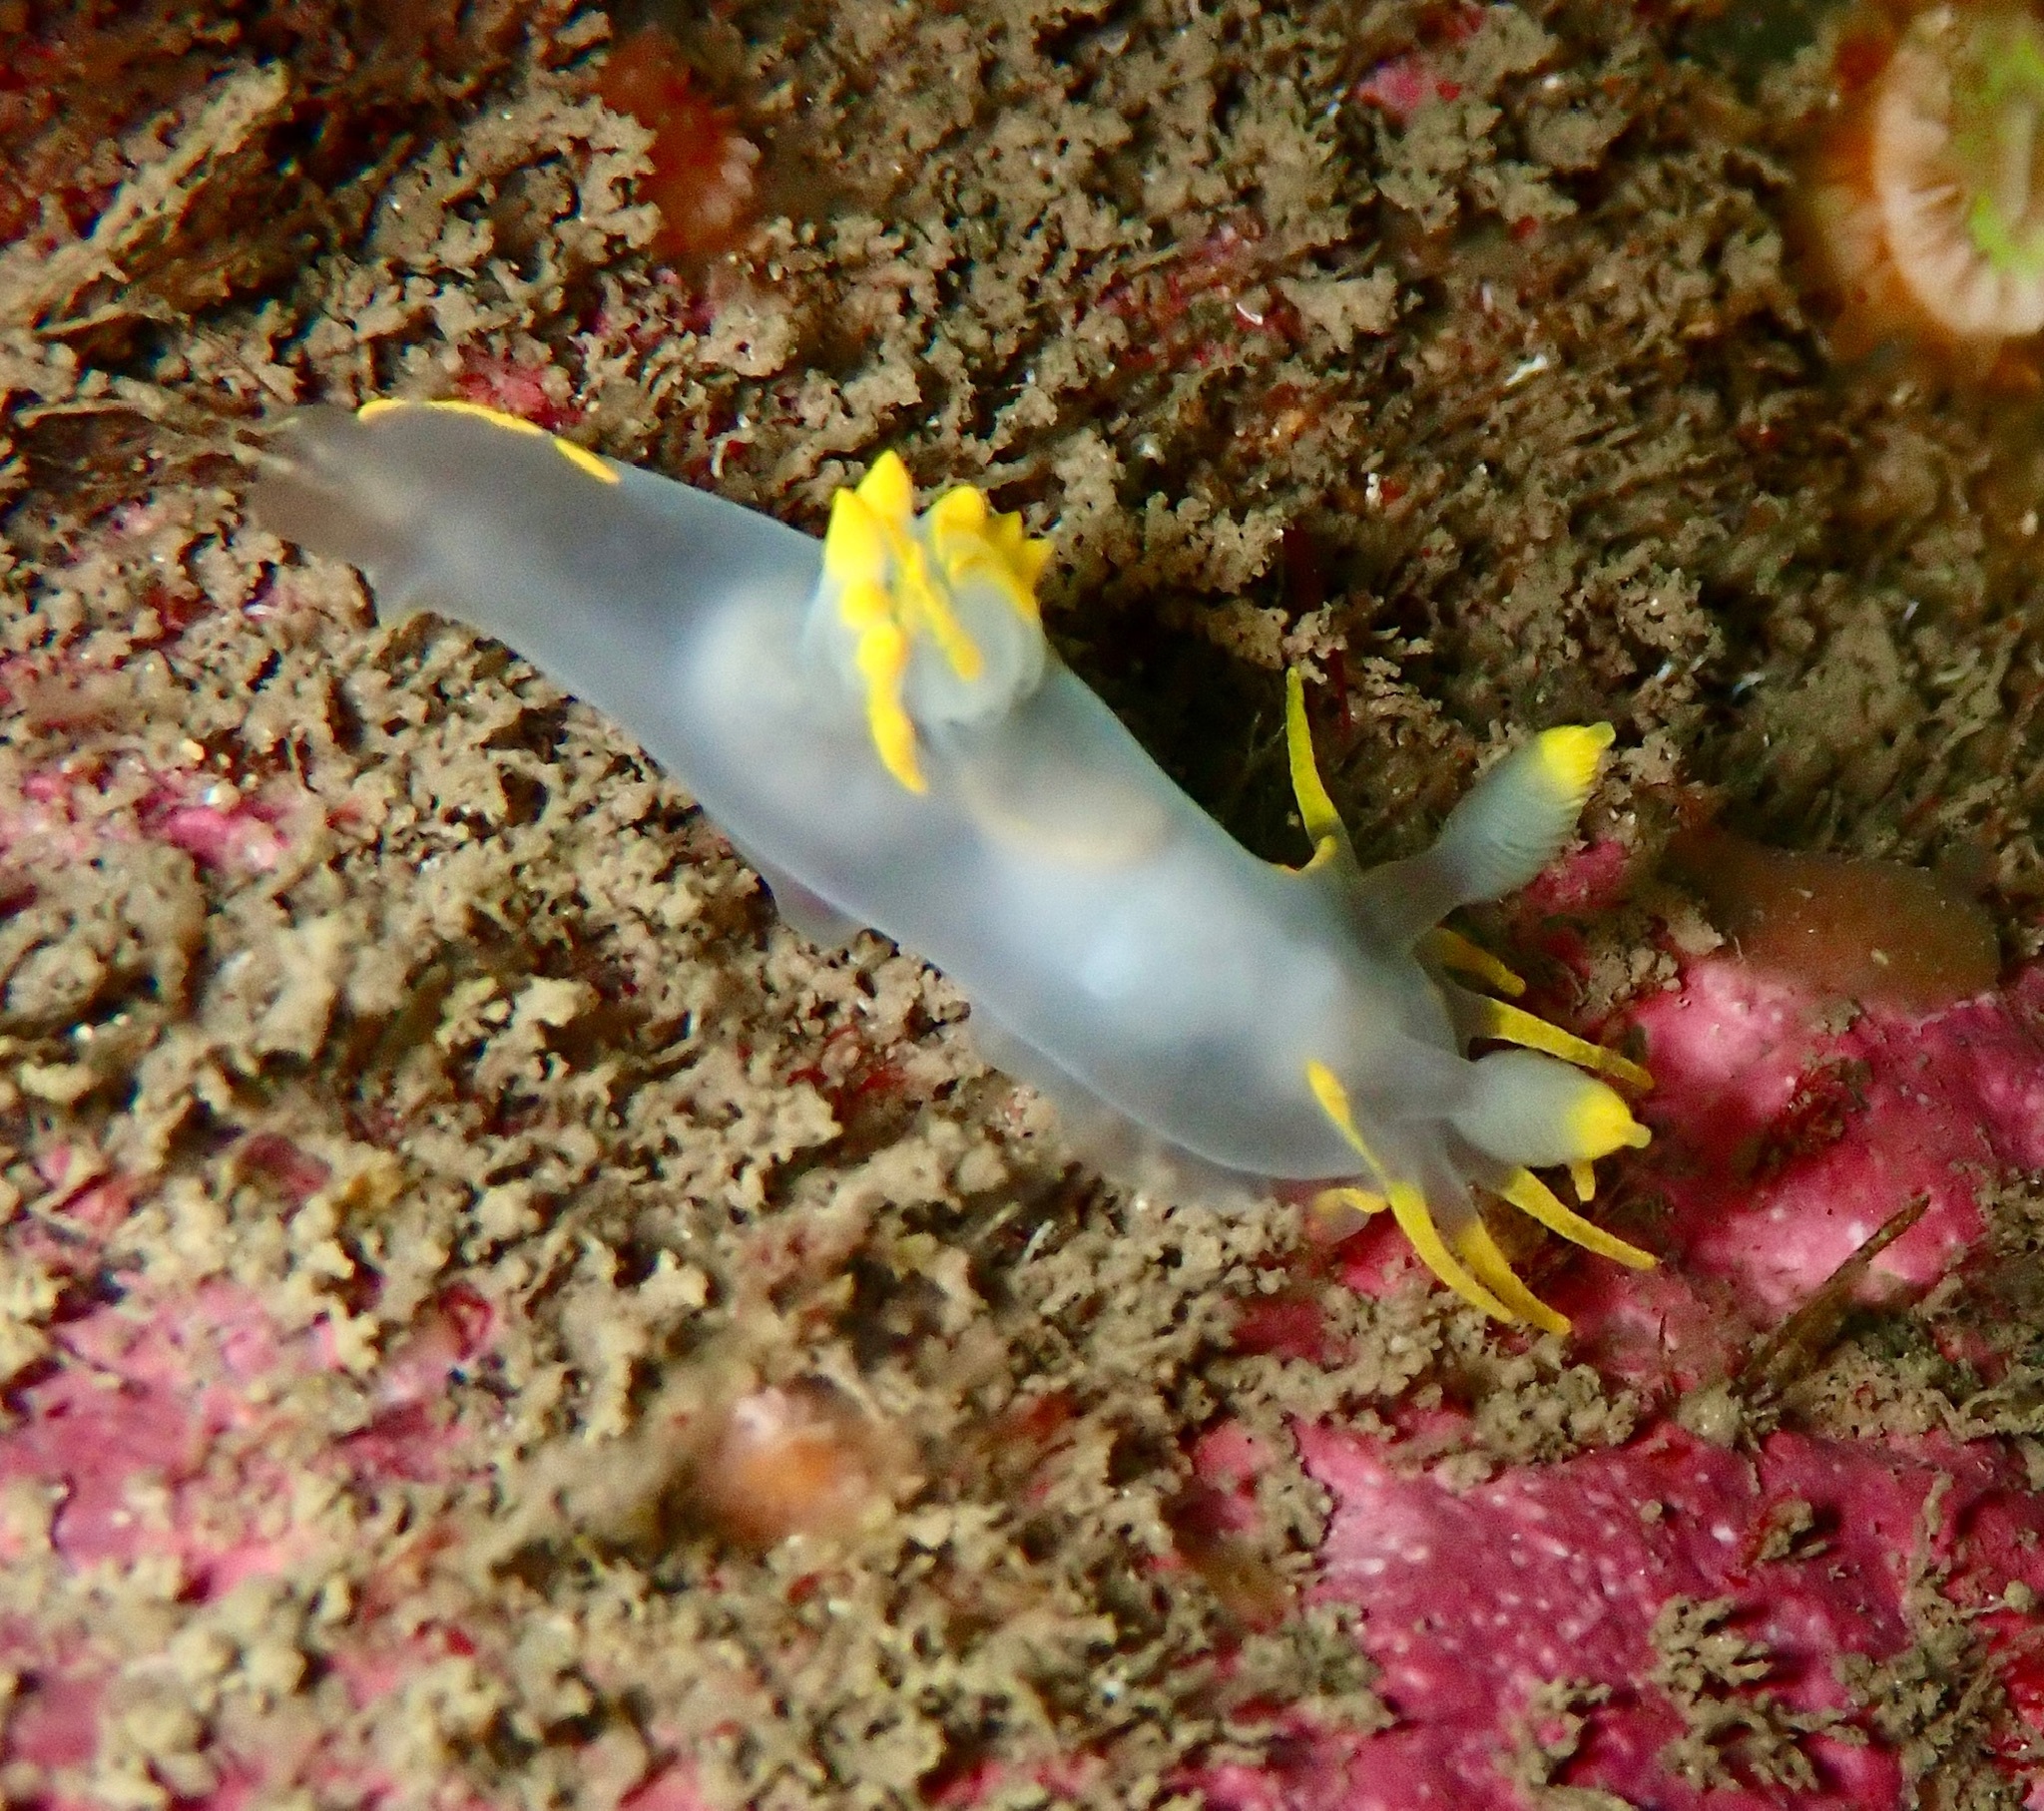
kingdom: Animalia
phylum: Mollusca
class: Gastropoda
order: Nudibranchia
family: Polyceridae
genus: Polycera
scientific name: Polycera faeroensis
